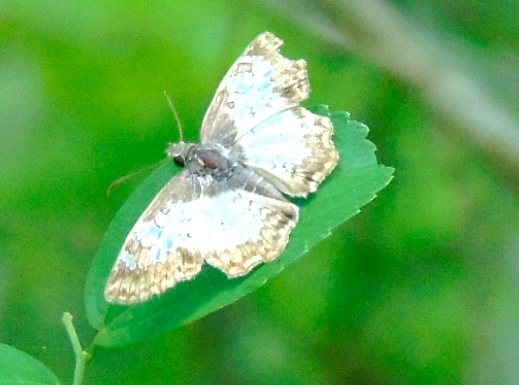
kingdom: Animalia
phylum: Arthropoda
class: Insecta
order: Lepidoptera
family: Hesperiidae
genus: Antigonus
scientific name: Antigonus emorsa
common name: White spurwing
